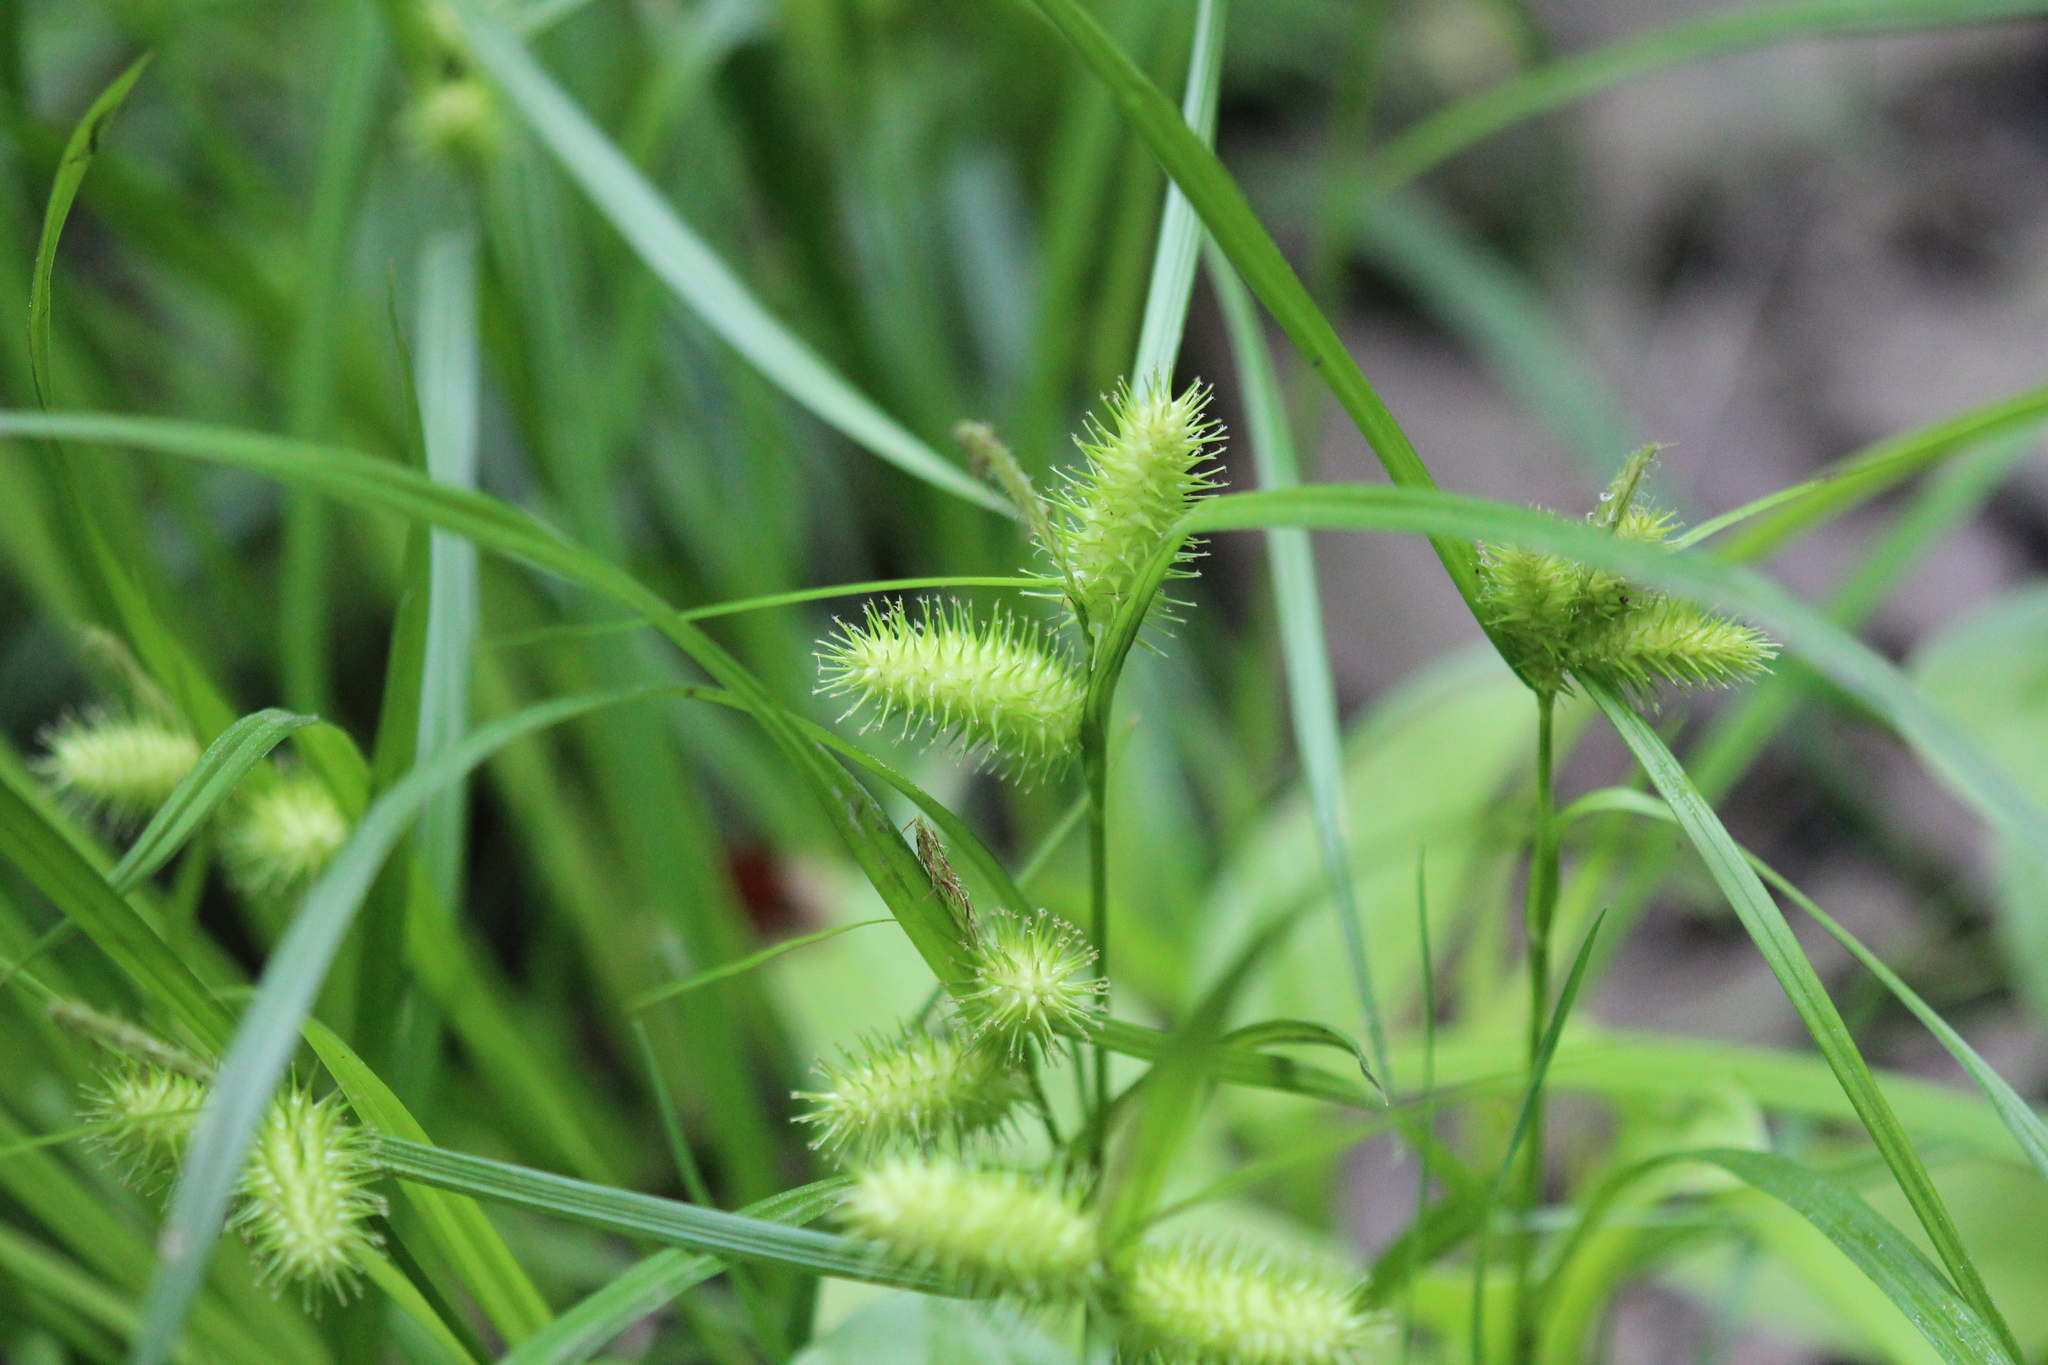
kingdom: Plantae
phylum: Tracheophyta
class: Liliopsida
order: Poales
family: Cyperaceae
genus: Carex
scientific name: Carex lurida
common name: Sallow sedge
